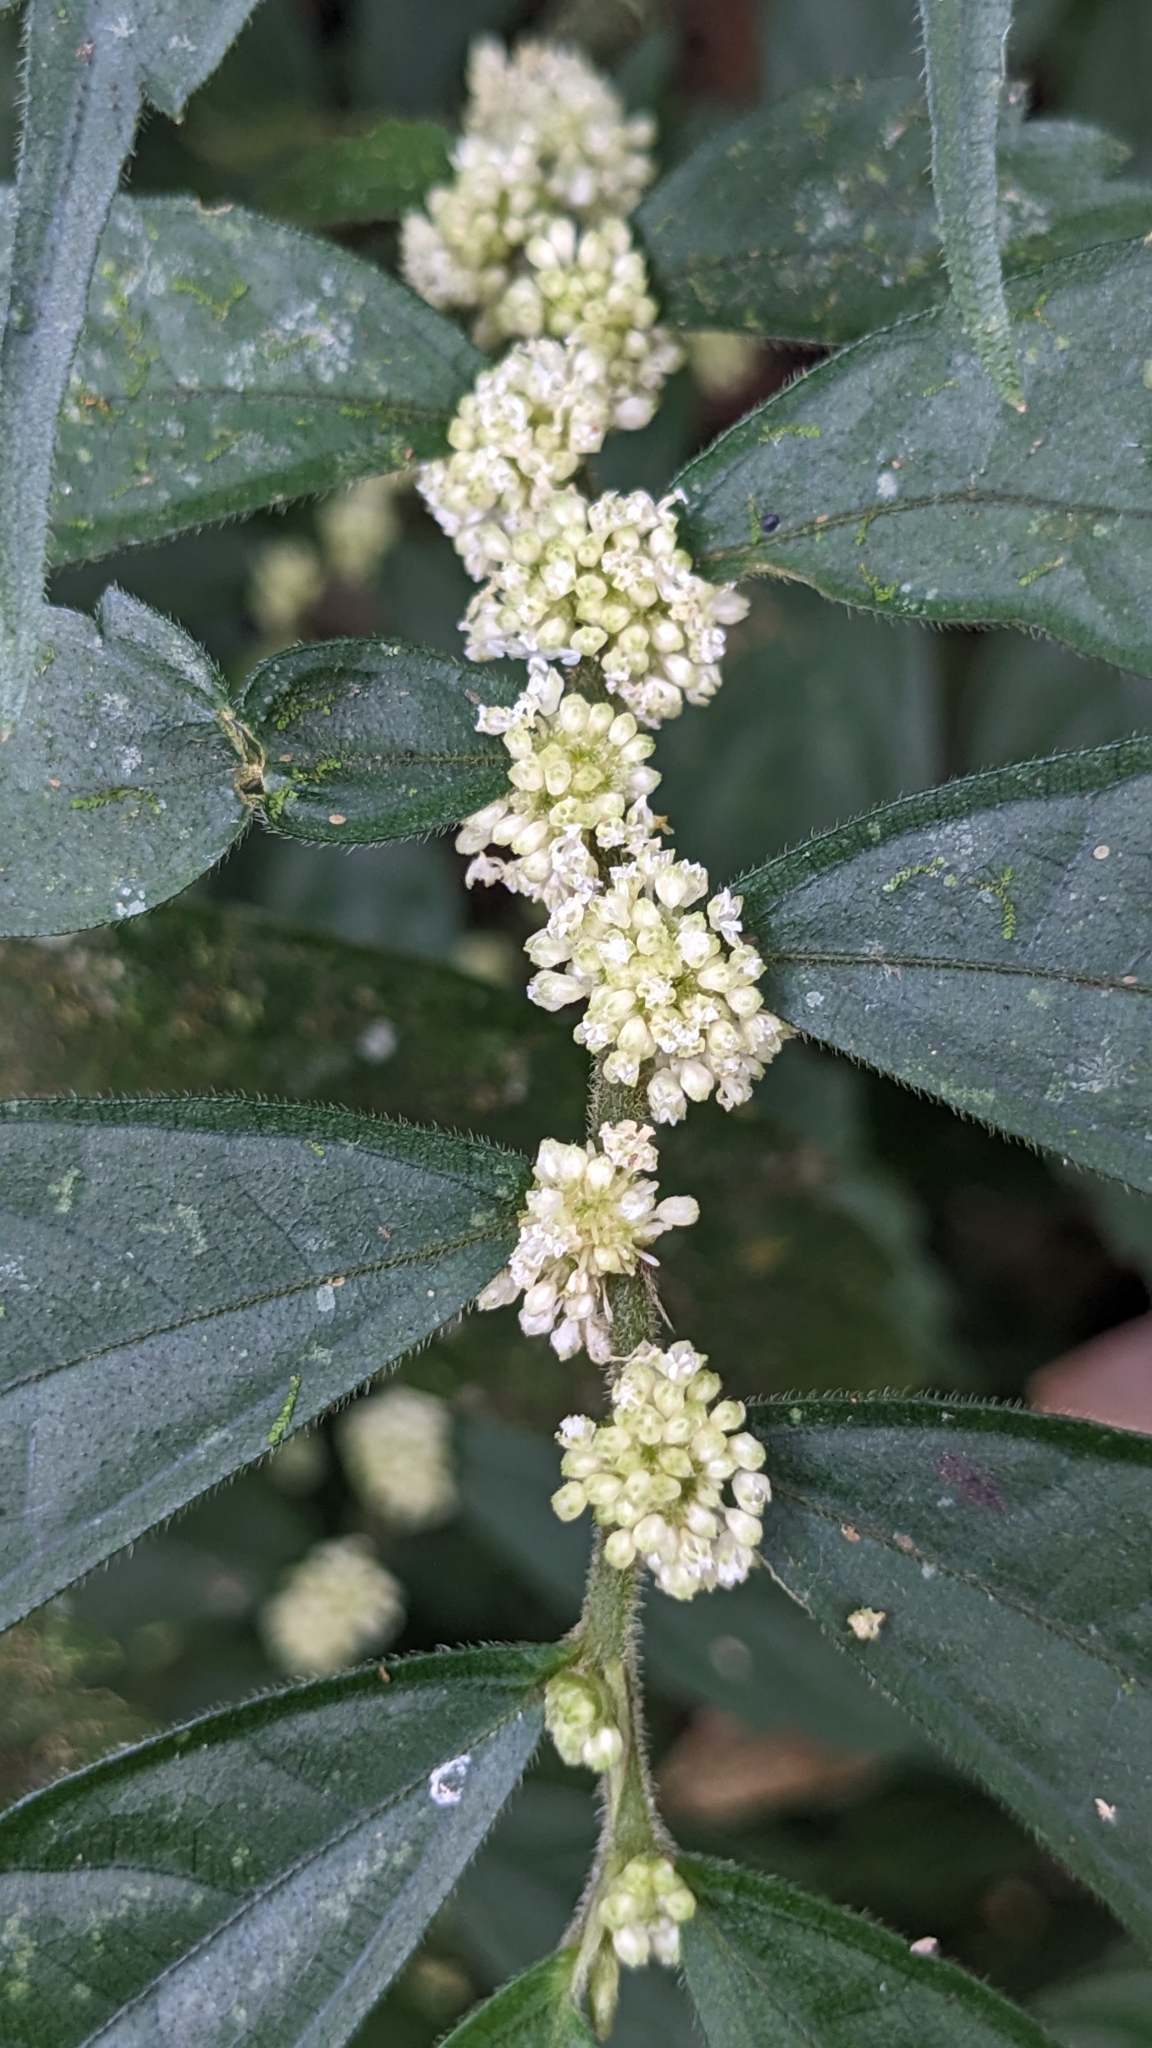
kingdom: Plantae
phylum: Tracheophyta
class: Magnoliopsida
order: Rosales
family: Urticaceae
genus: Elatostema
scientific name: Elatostema lineolatum
